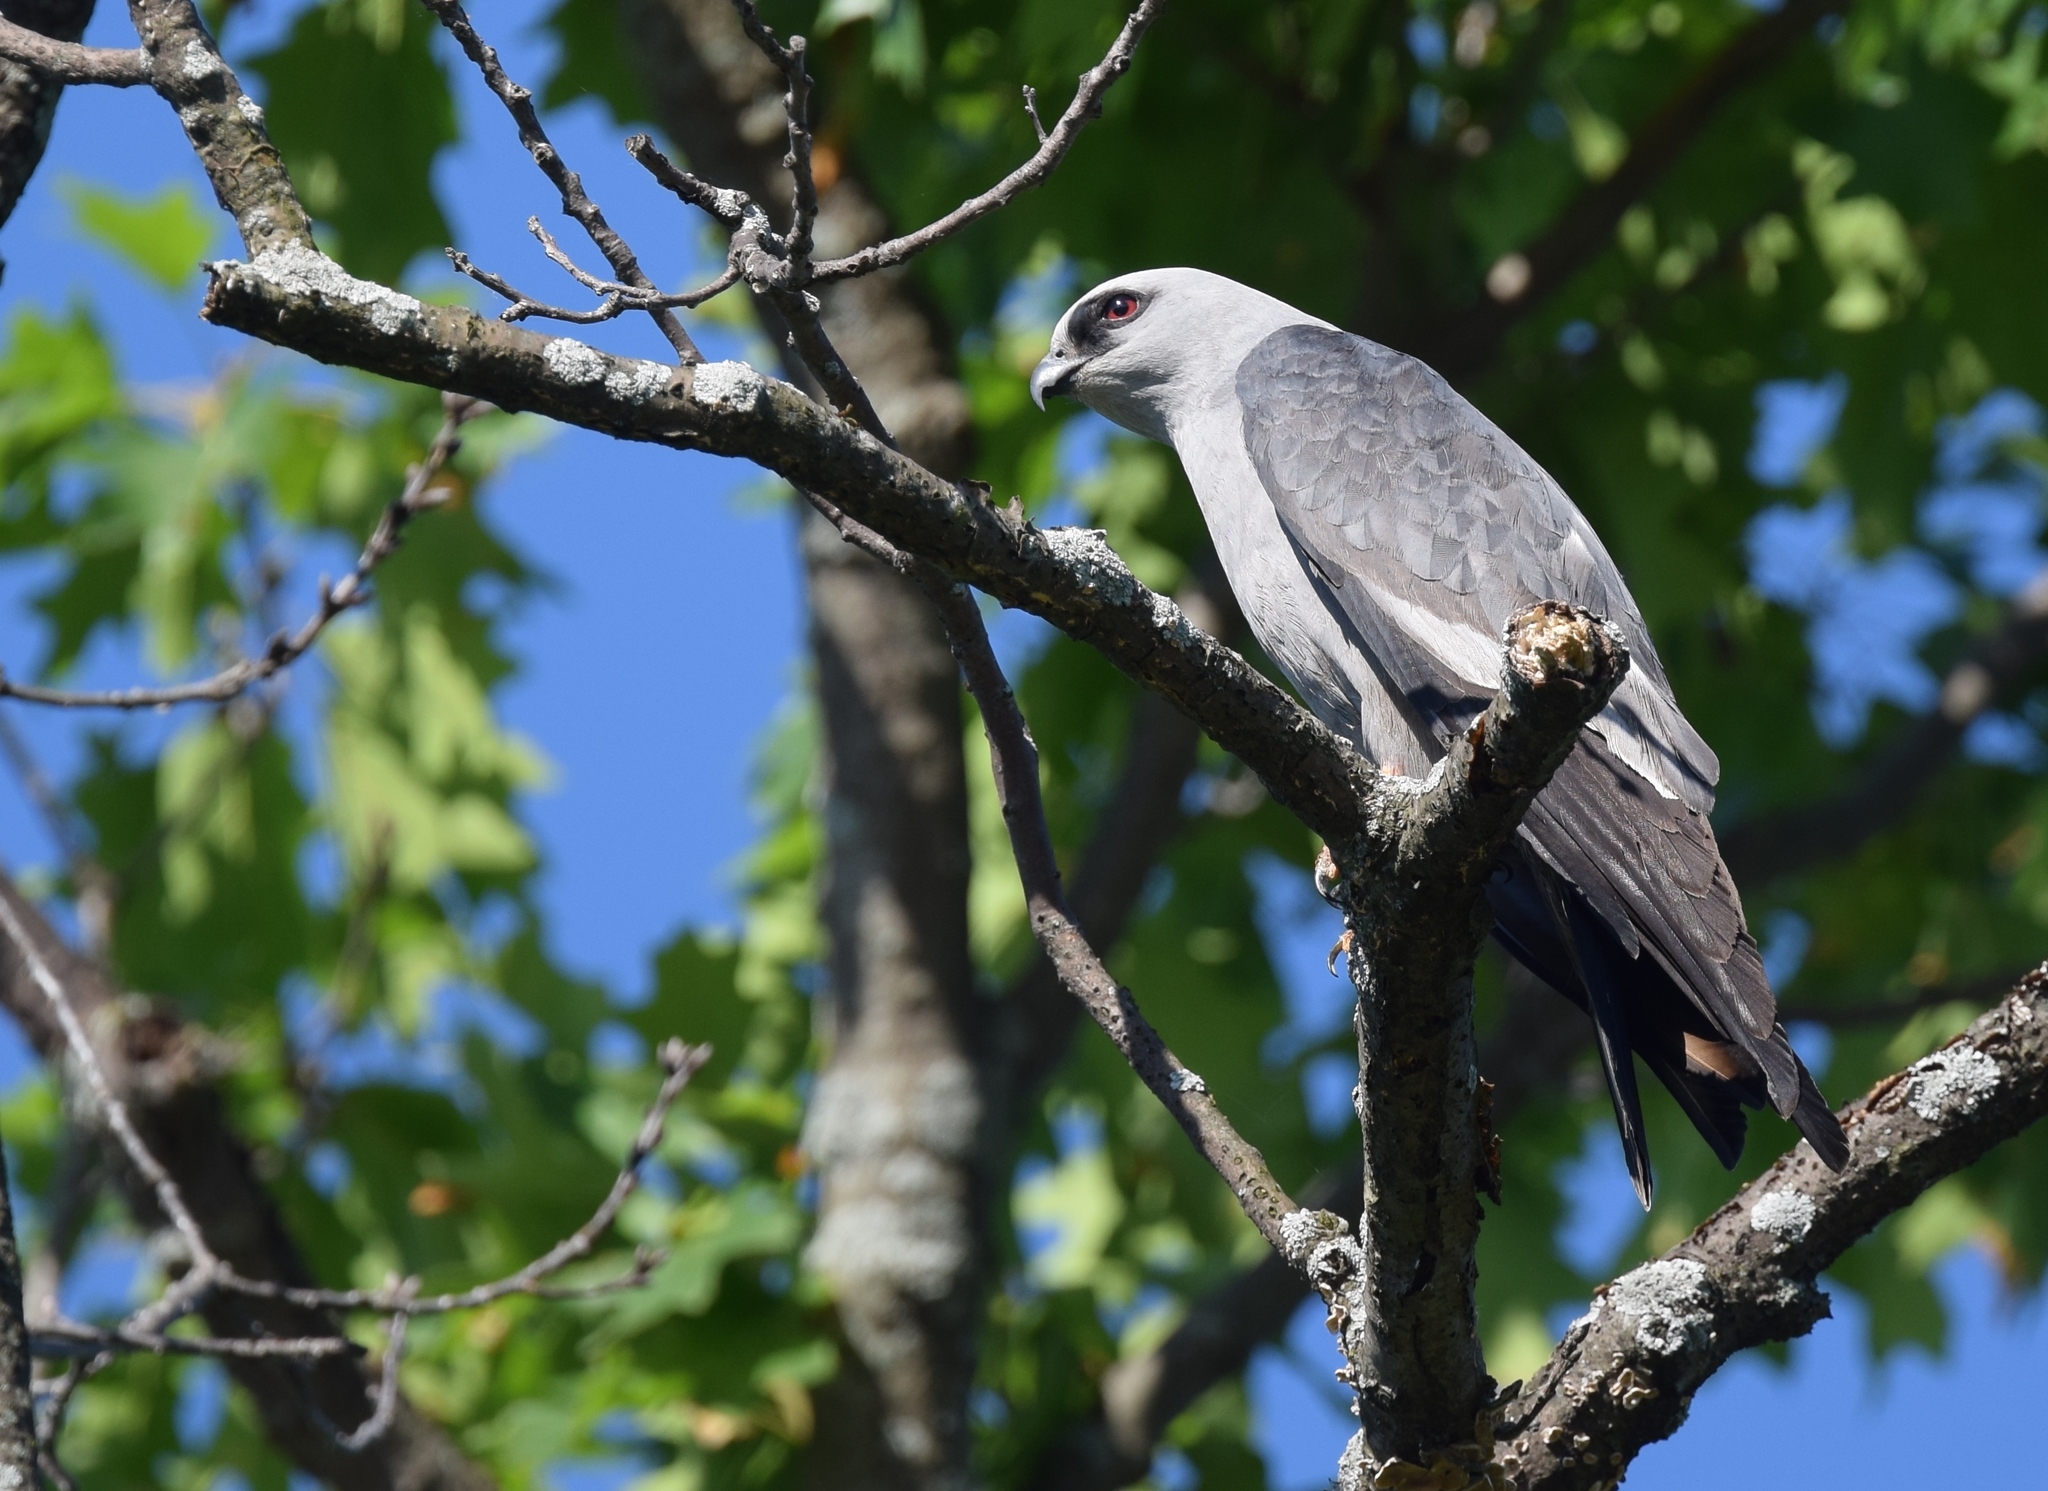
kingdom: Animalia
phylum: Chordata
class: Aves
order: Accipitriformes
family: Accipitridae
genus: Ictinia
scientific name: Ictinia mississippiensis
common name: Mississippi kite
